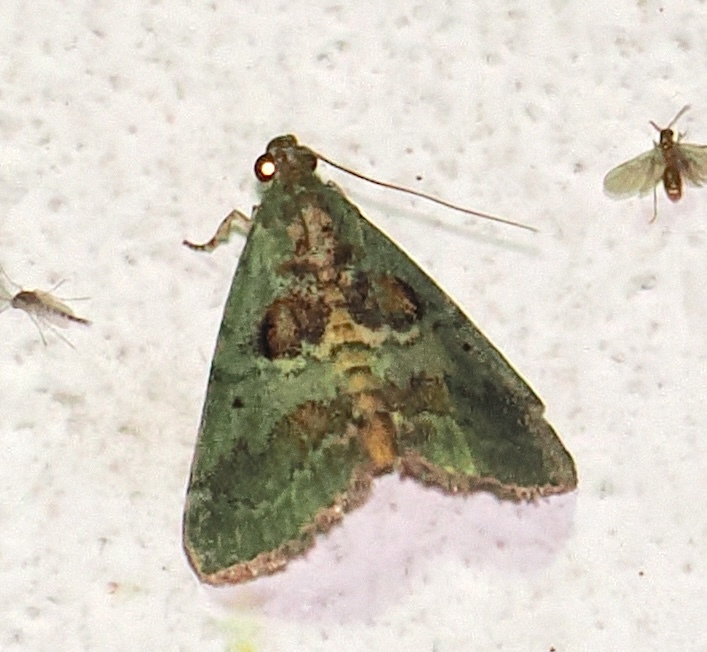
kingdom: Animalia
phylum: Arthropoda
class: Insecta
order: Lepidoptera
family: Pyralidae
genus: Deuterollyta
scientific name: Deuterollyta zetila
